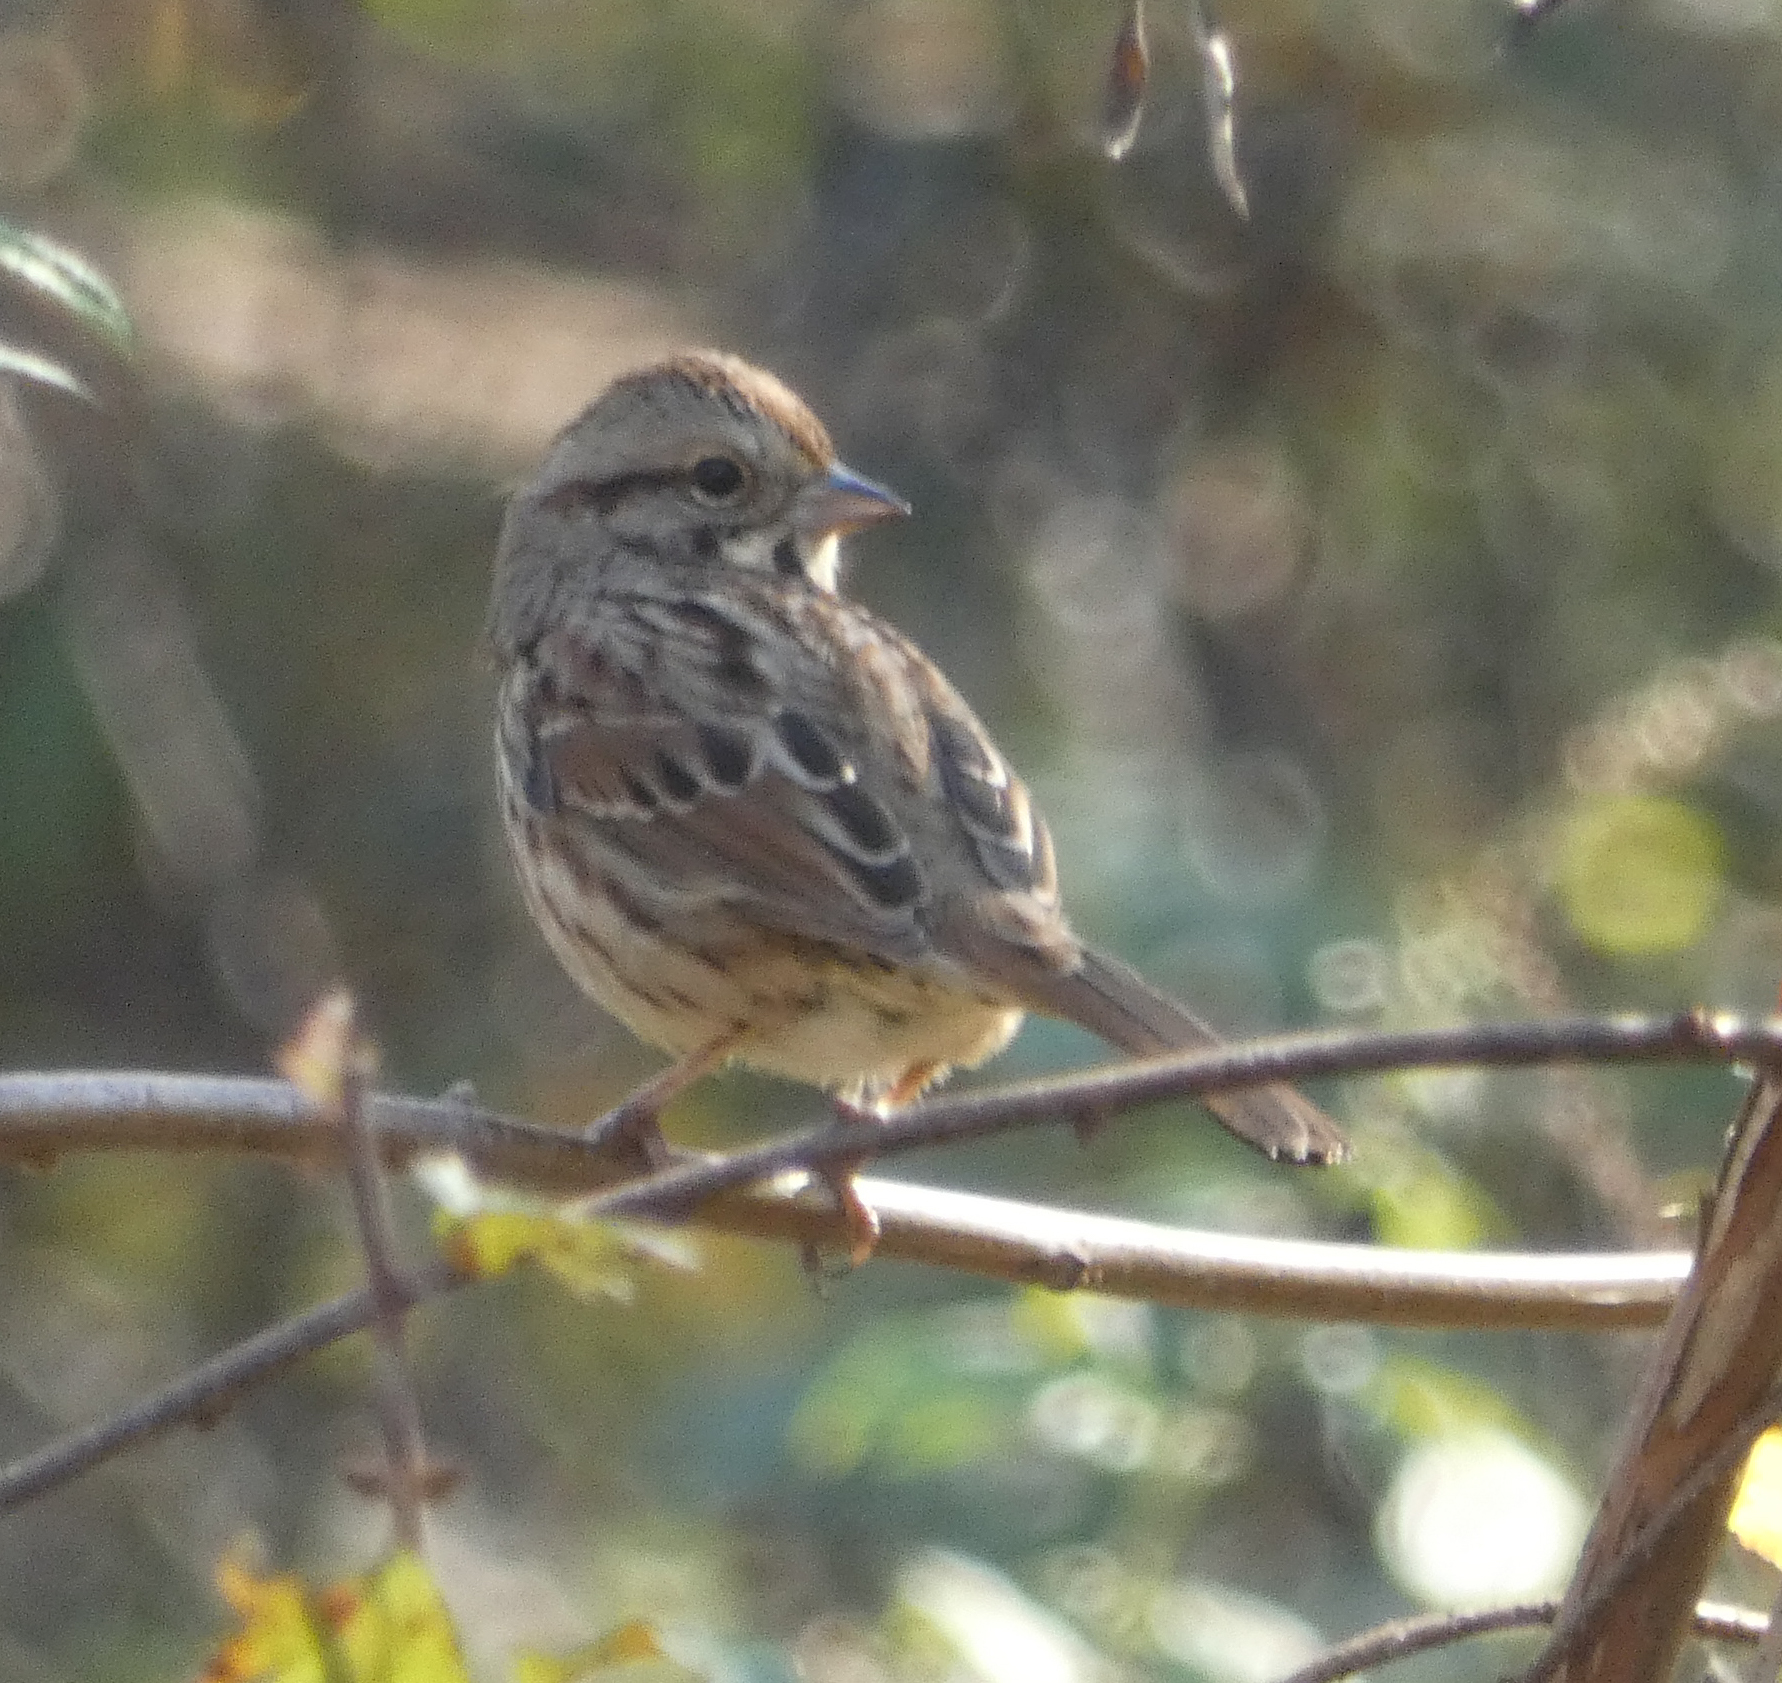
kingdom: Animalia
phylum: Chordata
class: Aves
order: Passeriformes
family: Passerellidae
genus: Melospiza
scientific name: Melospiza melodia
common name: Song sparrow
